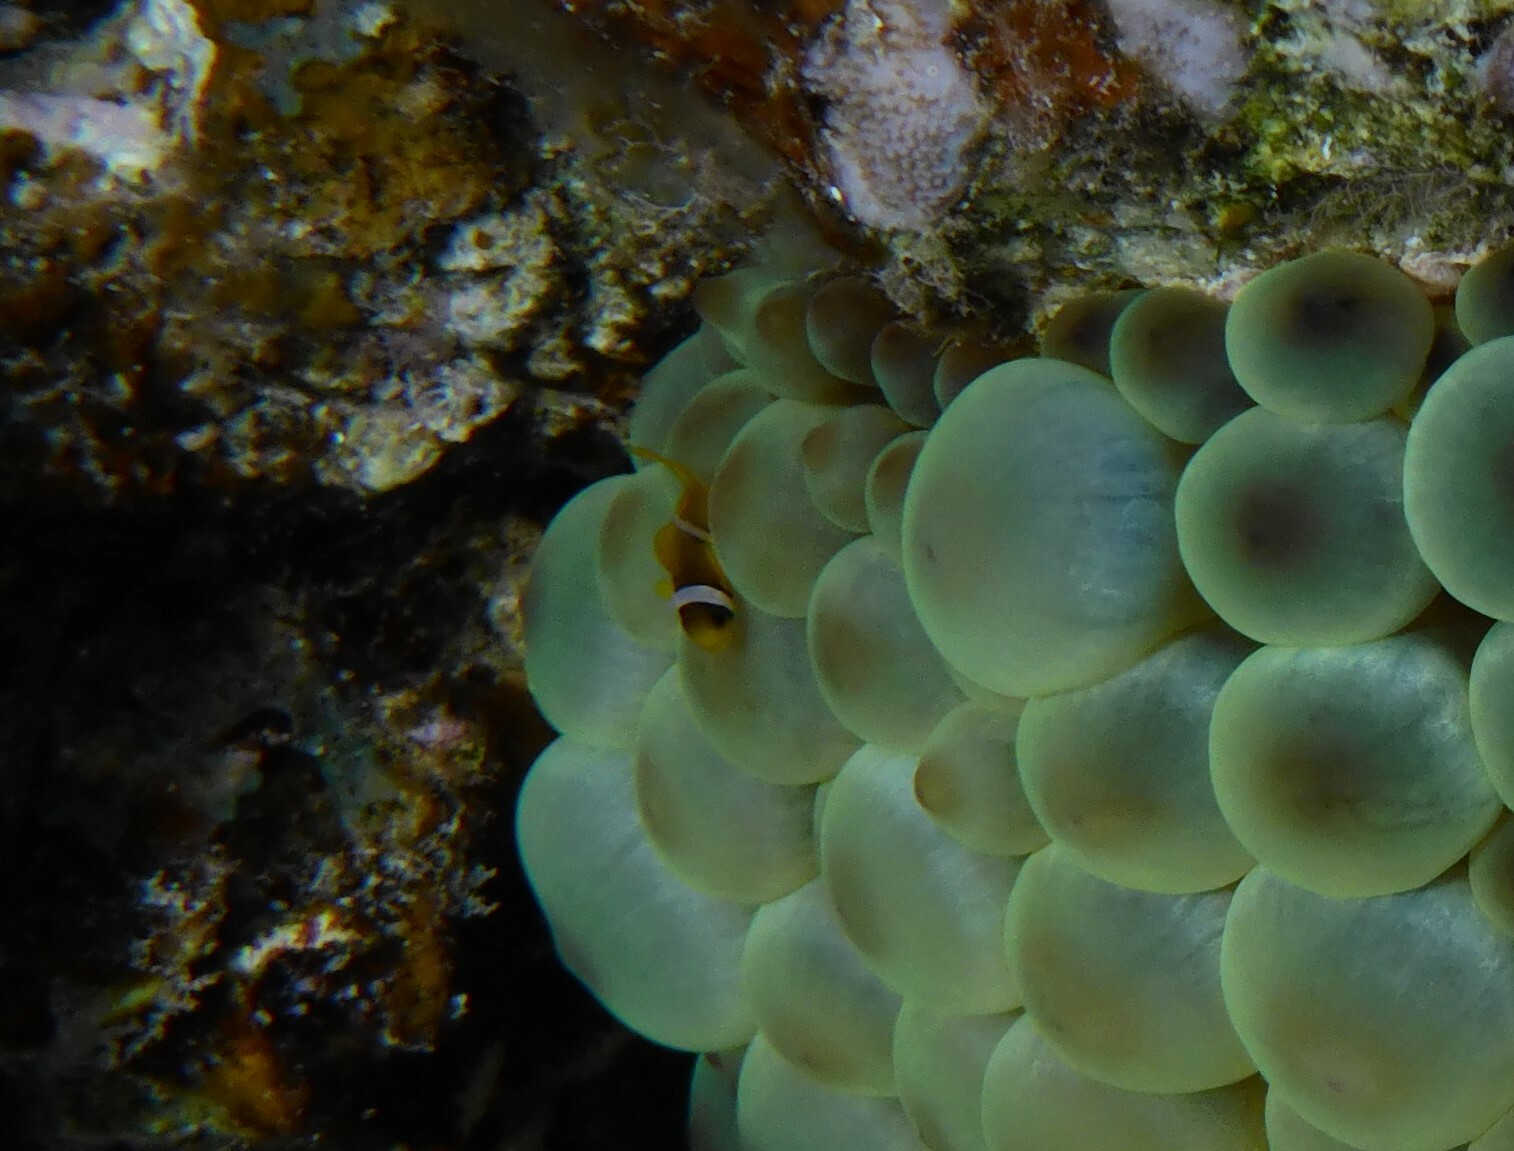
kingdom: Animalia
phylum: Chordata
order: Perciformes
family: Pomacentridae
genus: Amphiprion
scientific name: Amphiprion bicinctus
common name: Two-banded anemonefish
